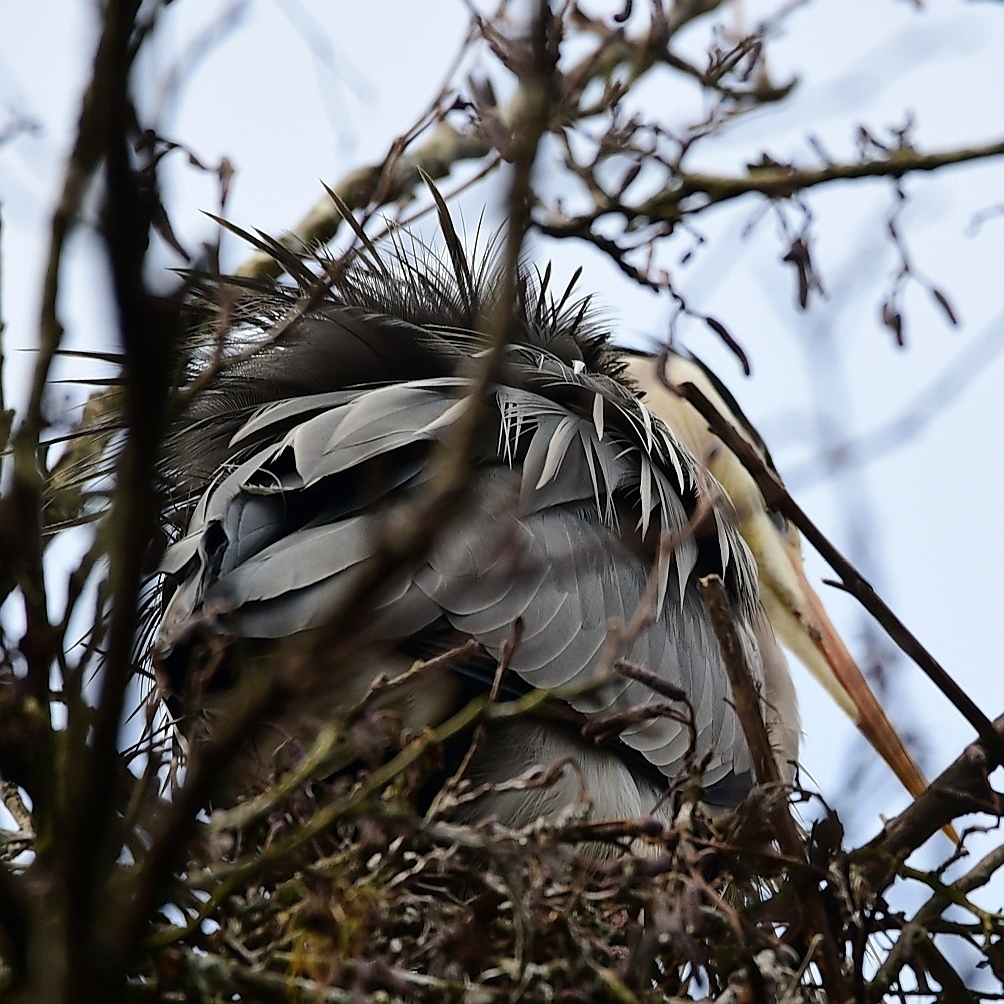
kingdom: Animalia
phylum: Chordata
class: Aves
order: Pelecaniformes
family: Ardeidae
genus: Ardea
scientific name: Ardea cinerea
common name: Grey heron
